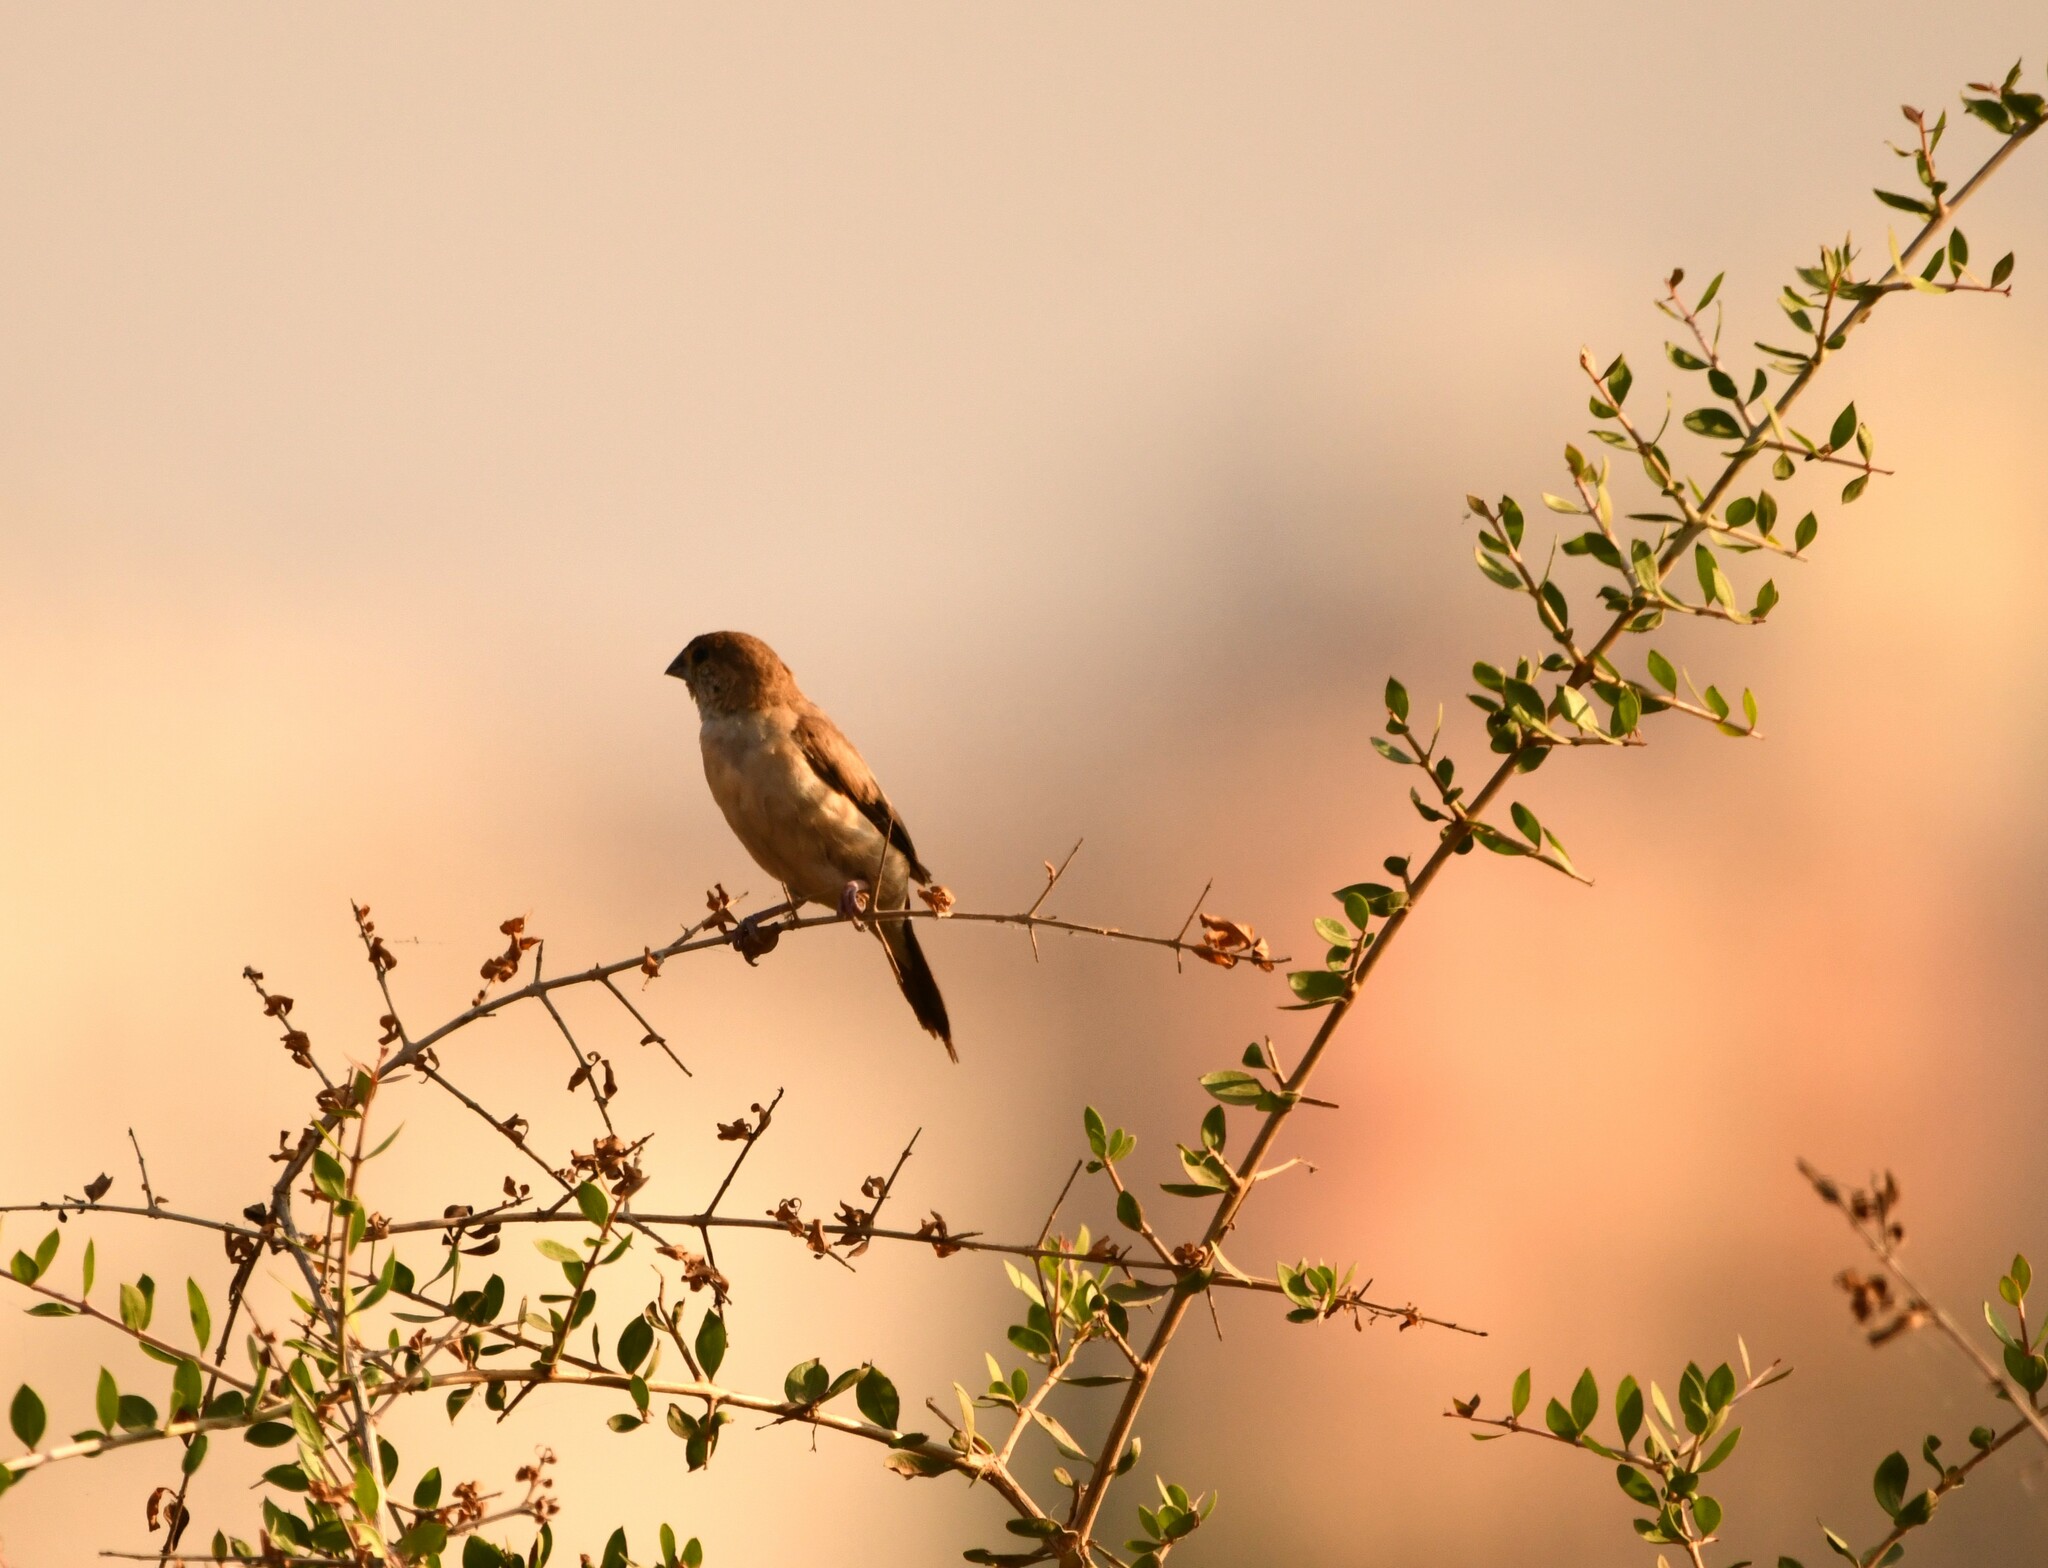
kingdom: Animalia
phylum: Chordata
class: Aves
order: Passeriformes
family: Estrildidae
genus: Euodice
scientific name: Euodice malabarica
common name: Indian silverbill
